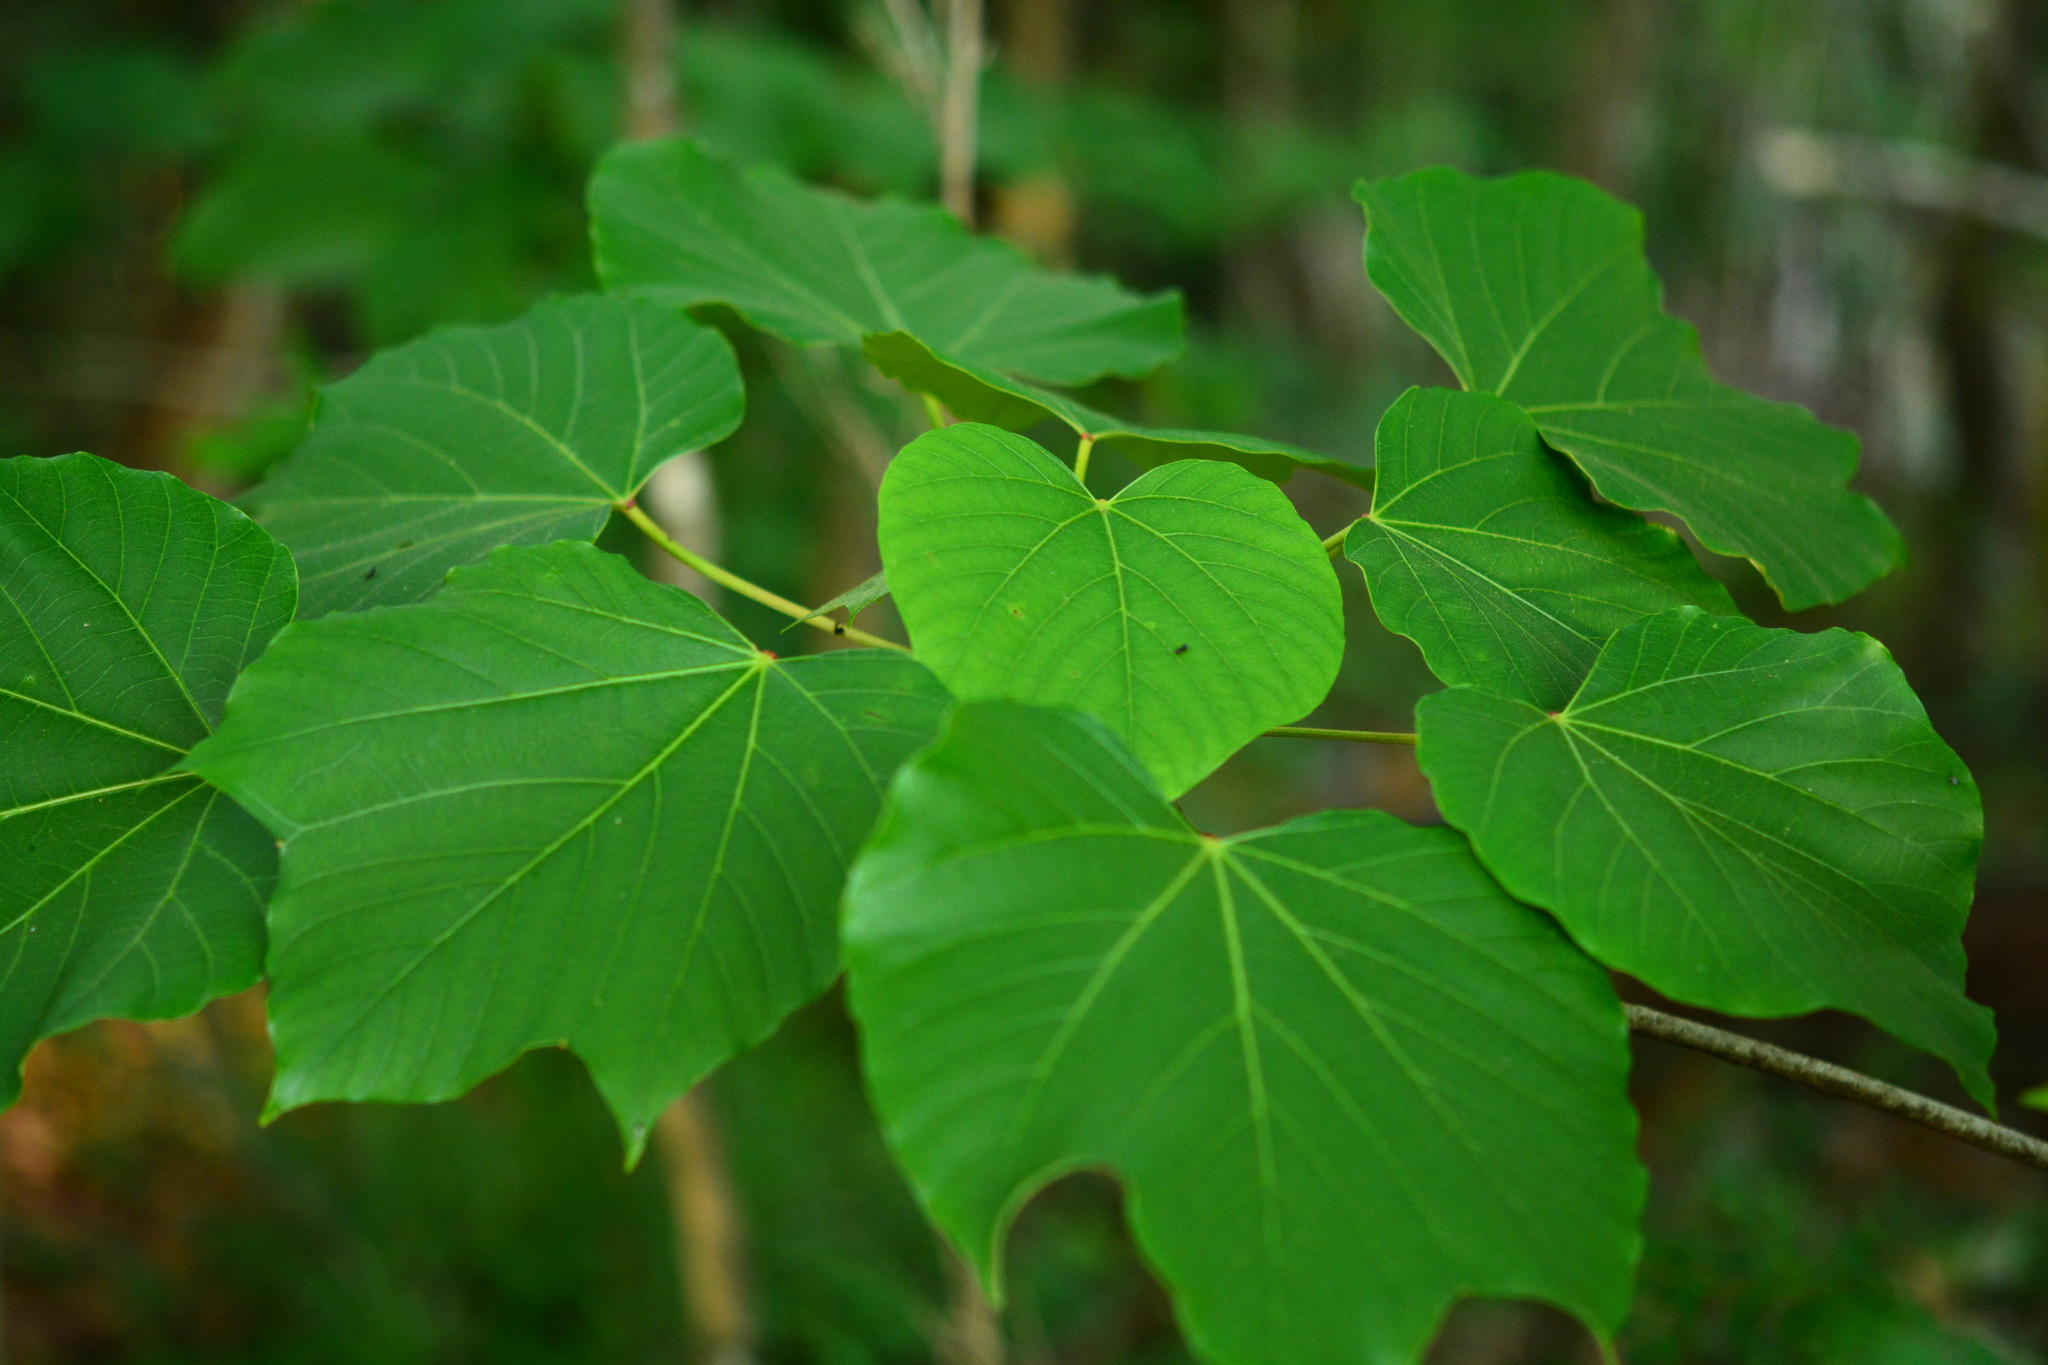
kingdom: Plantae
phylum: Tracheophyta
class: Magnoliopsida
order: Malpighiales
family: Euphorbiaceae
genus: Vernicia
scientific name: Vernicia fordii
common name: Tungoil tree
